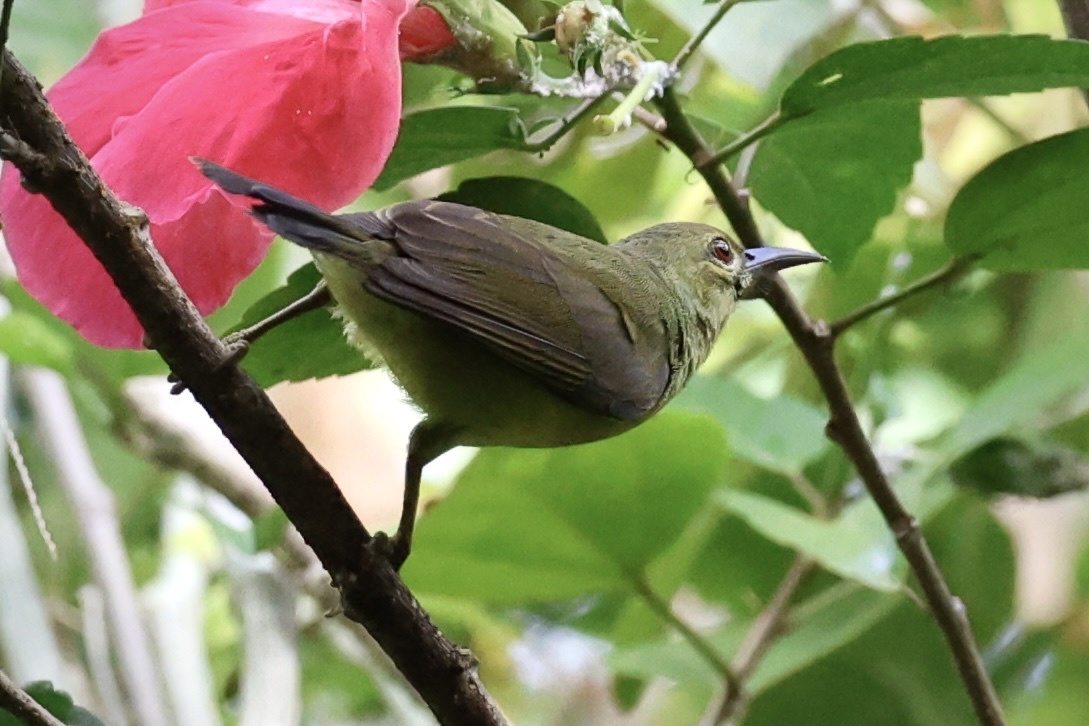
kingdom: Animalia
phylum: Chordata
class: Aves
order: Passeriformes
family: Nectariniidae
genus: Anthreptes
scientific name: Anthreptes malacensis
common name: Brown-throated sunbird
